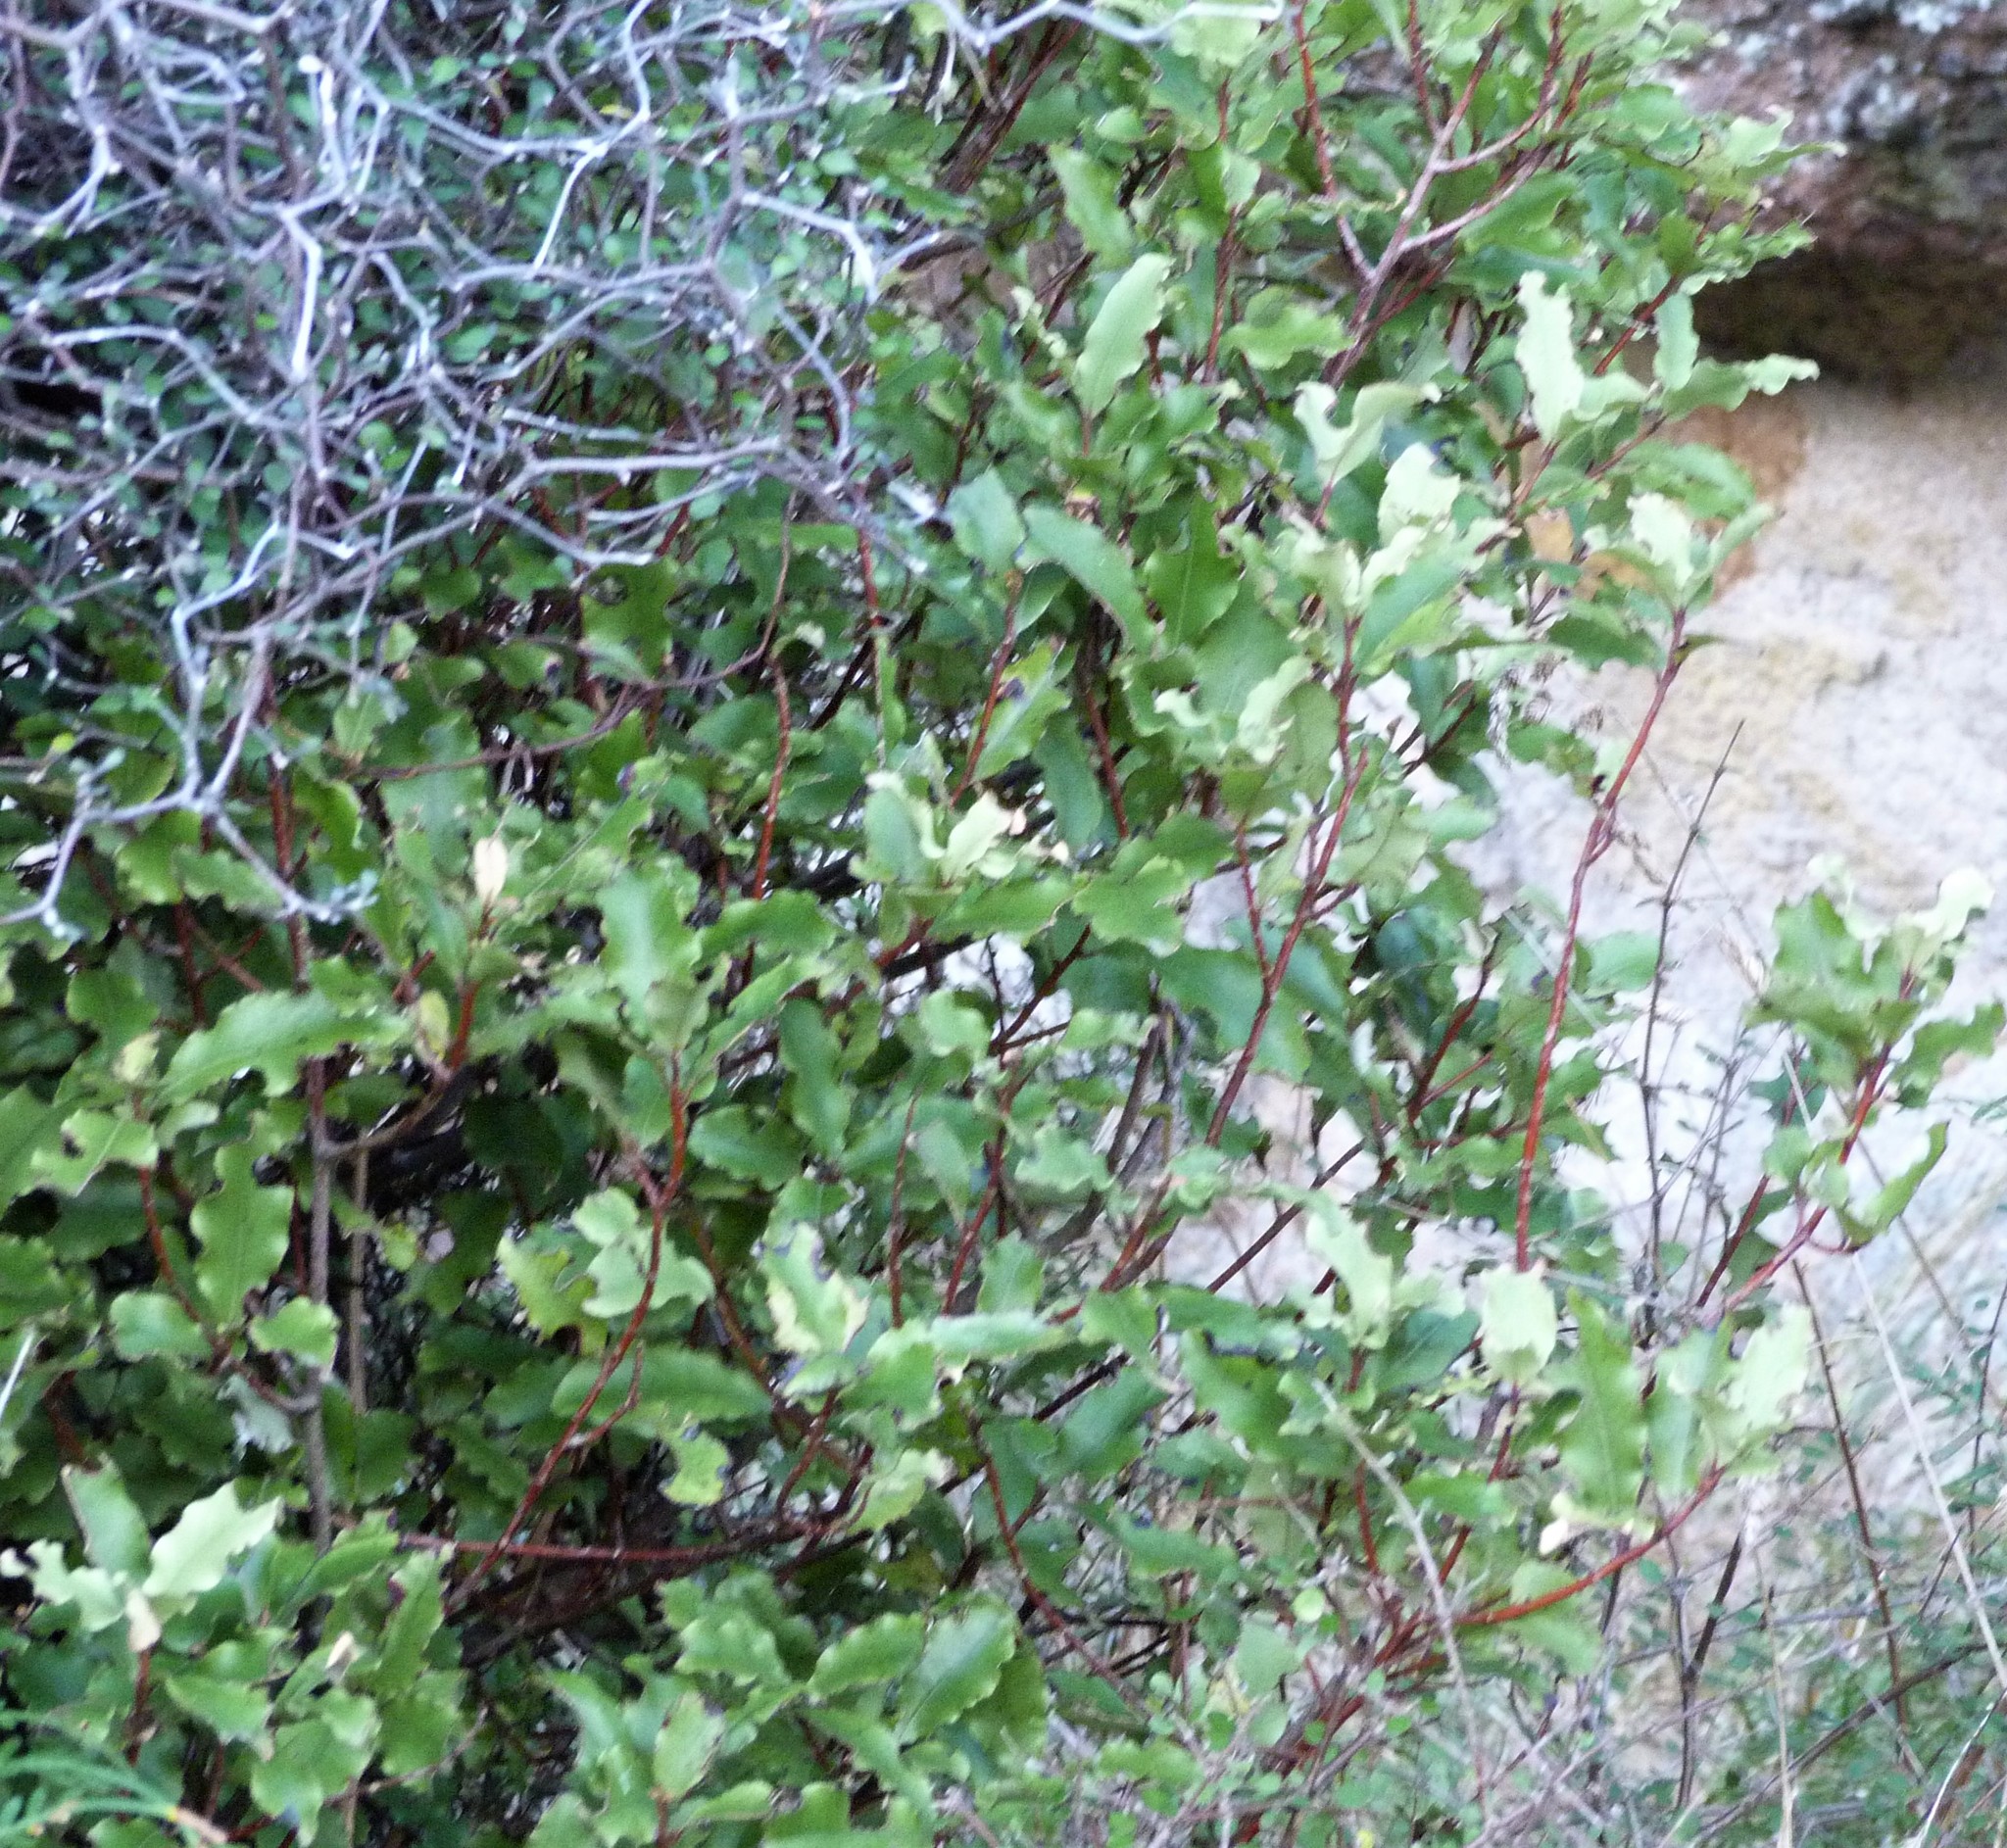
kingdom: Plantae
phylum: Tracheophyta
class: Magnoliopsida
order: Ericales
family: Primulaceae
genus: Myrsine
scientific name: Myrsine australis
